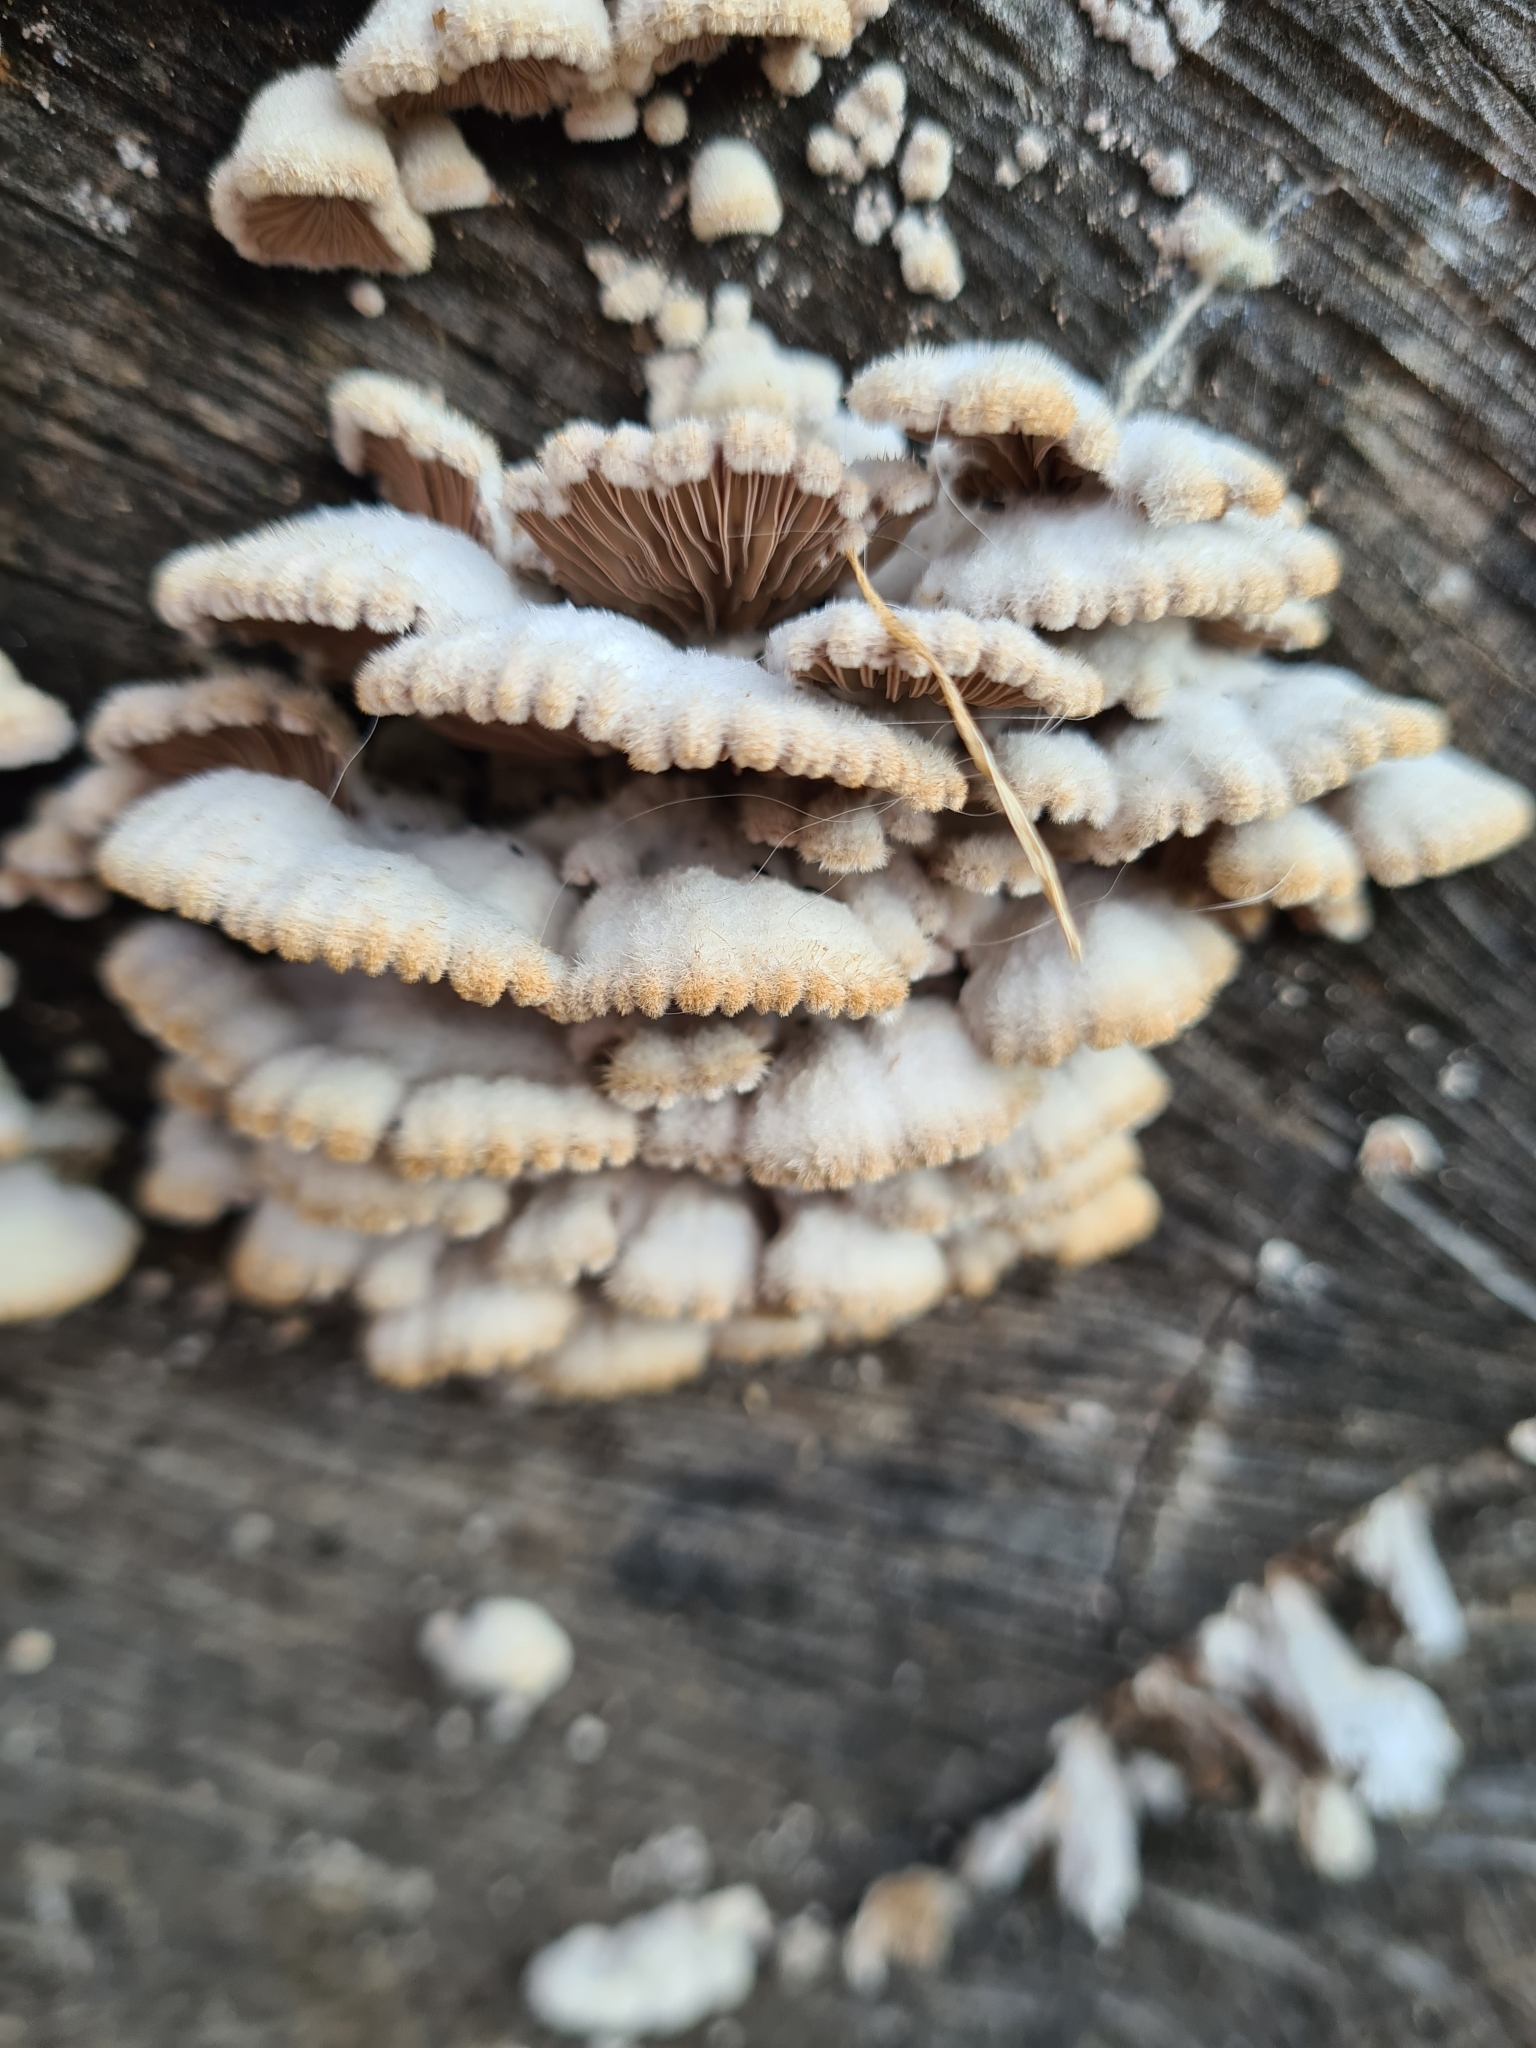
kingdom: Fungi
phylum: Basidiomycota
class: Agaricomycetes
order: Agaricales
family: Schizophyllaceae
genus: Schizophyllum
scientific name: Schizophyllum commune
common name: Common porecrust
